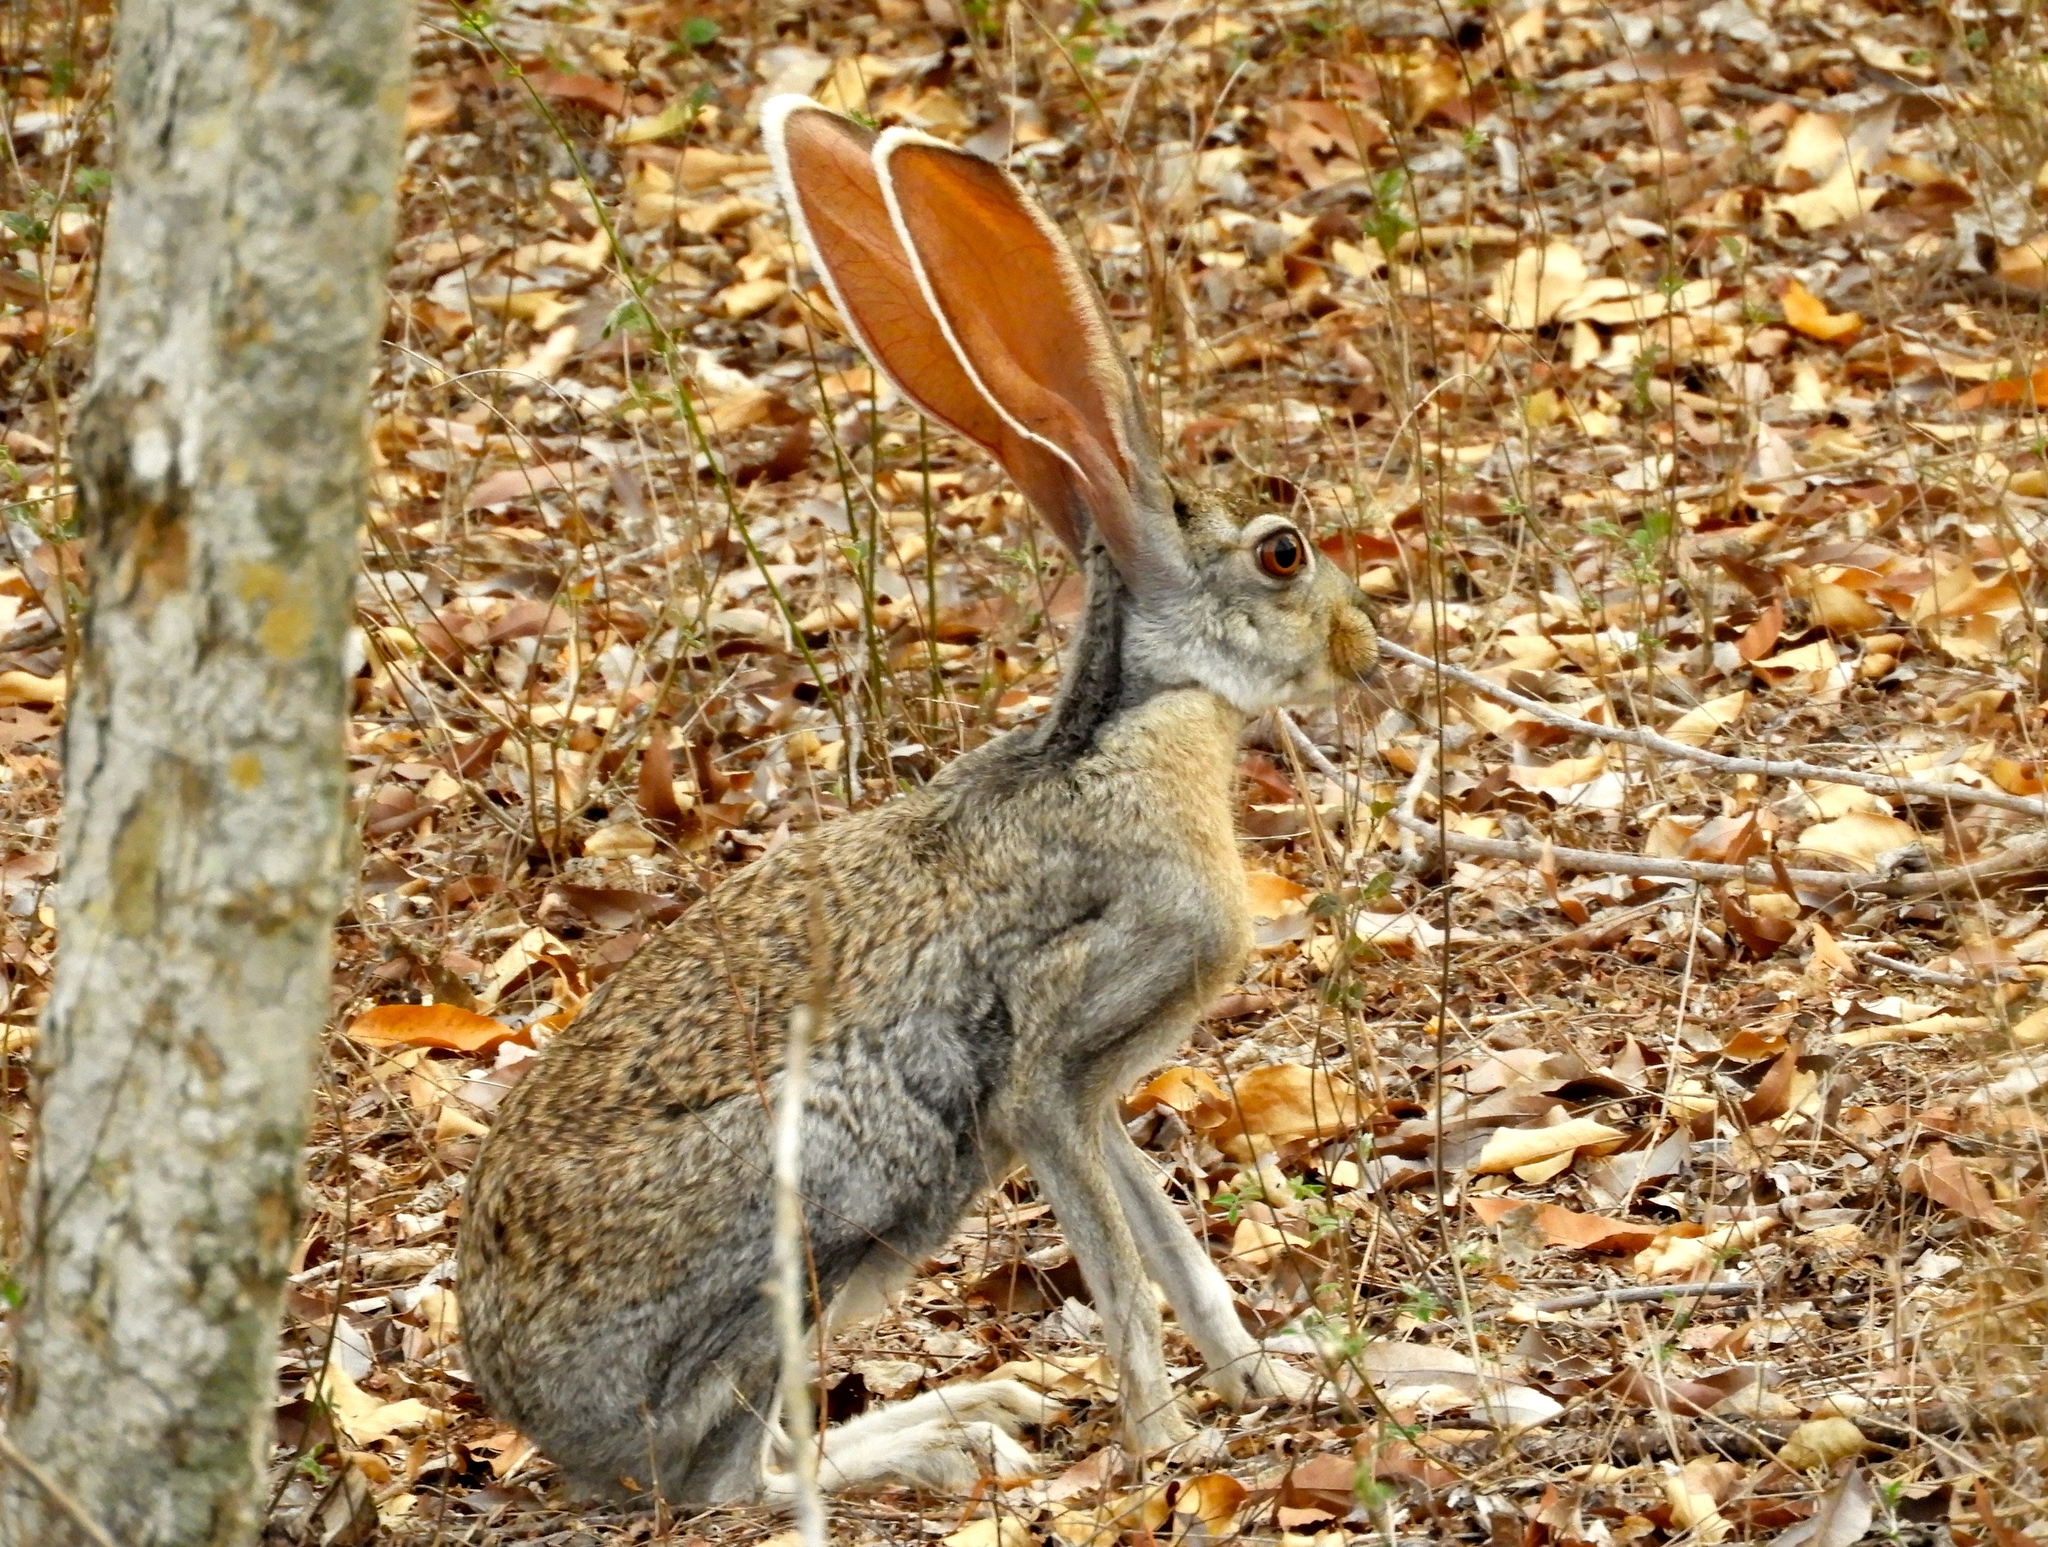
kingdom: Animalia
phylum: Chordata
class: Mammalia
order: Lagomorpha
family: Leporidae
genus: Lepus
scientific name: Lepus alleni
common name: Antelope jackrabbit
